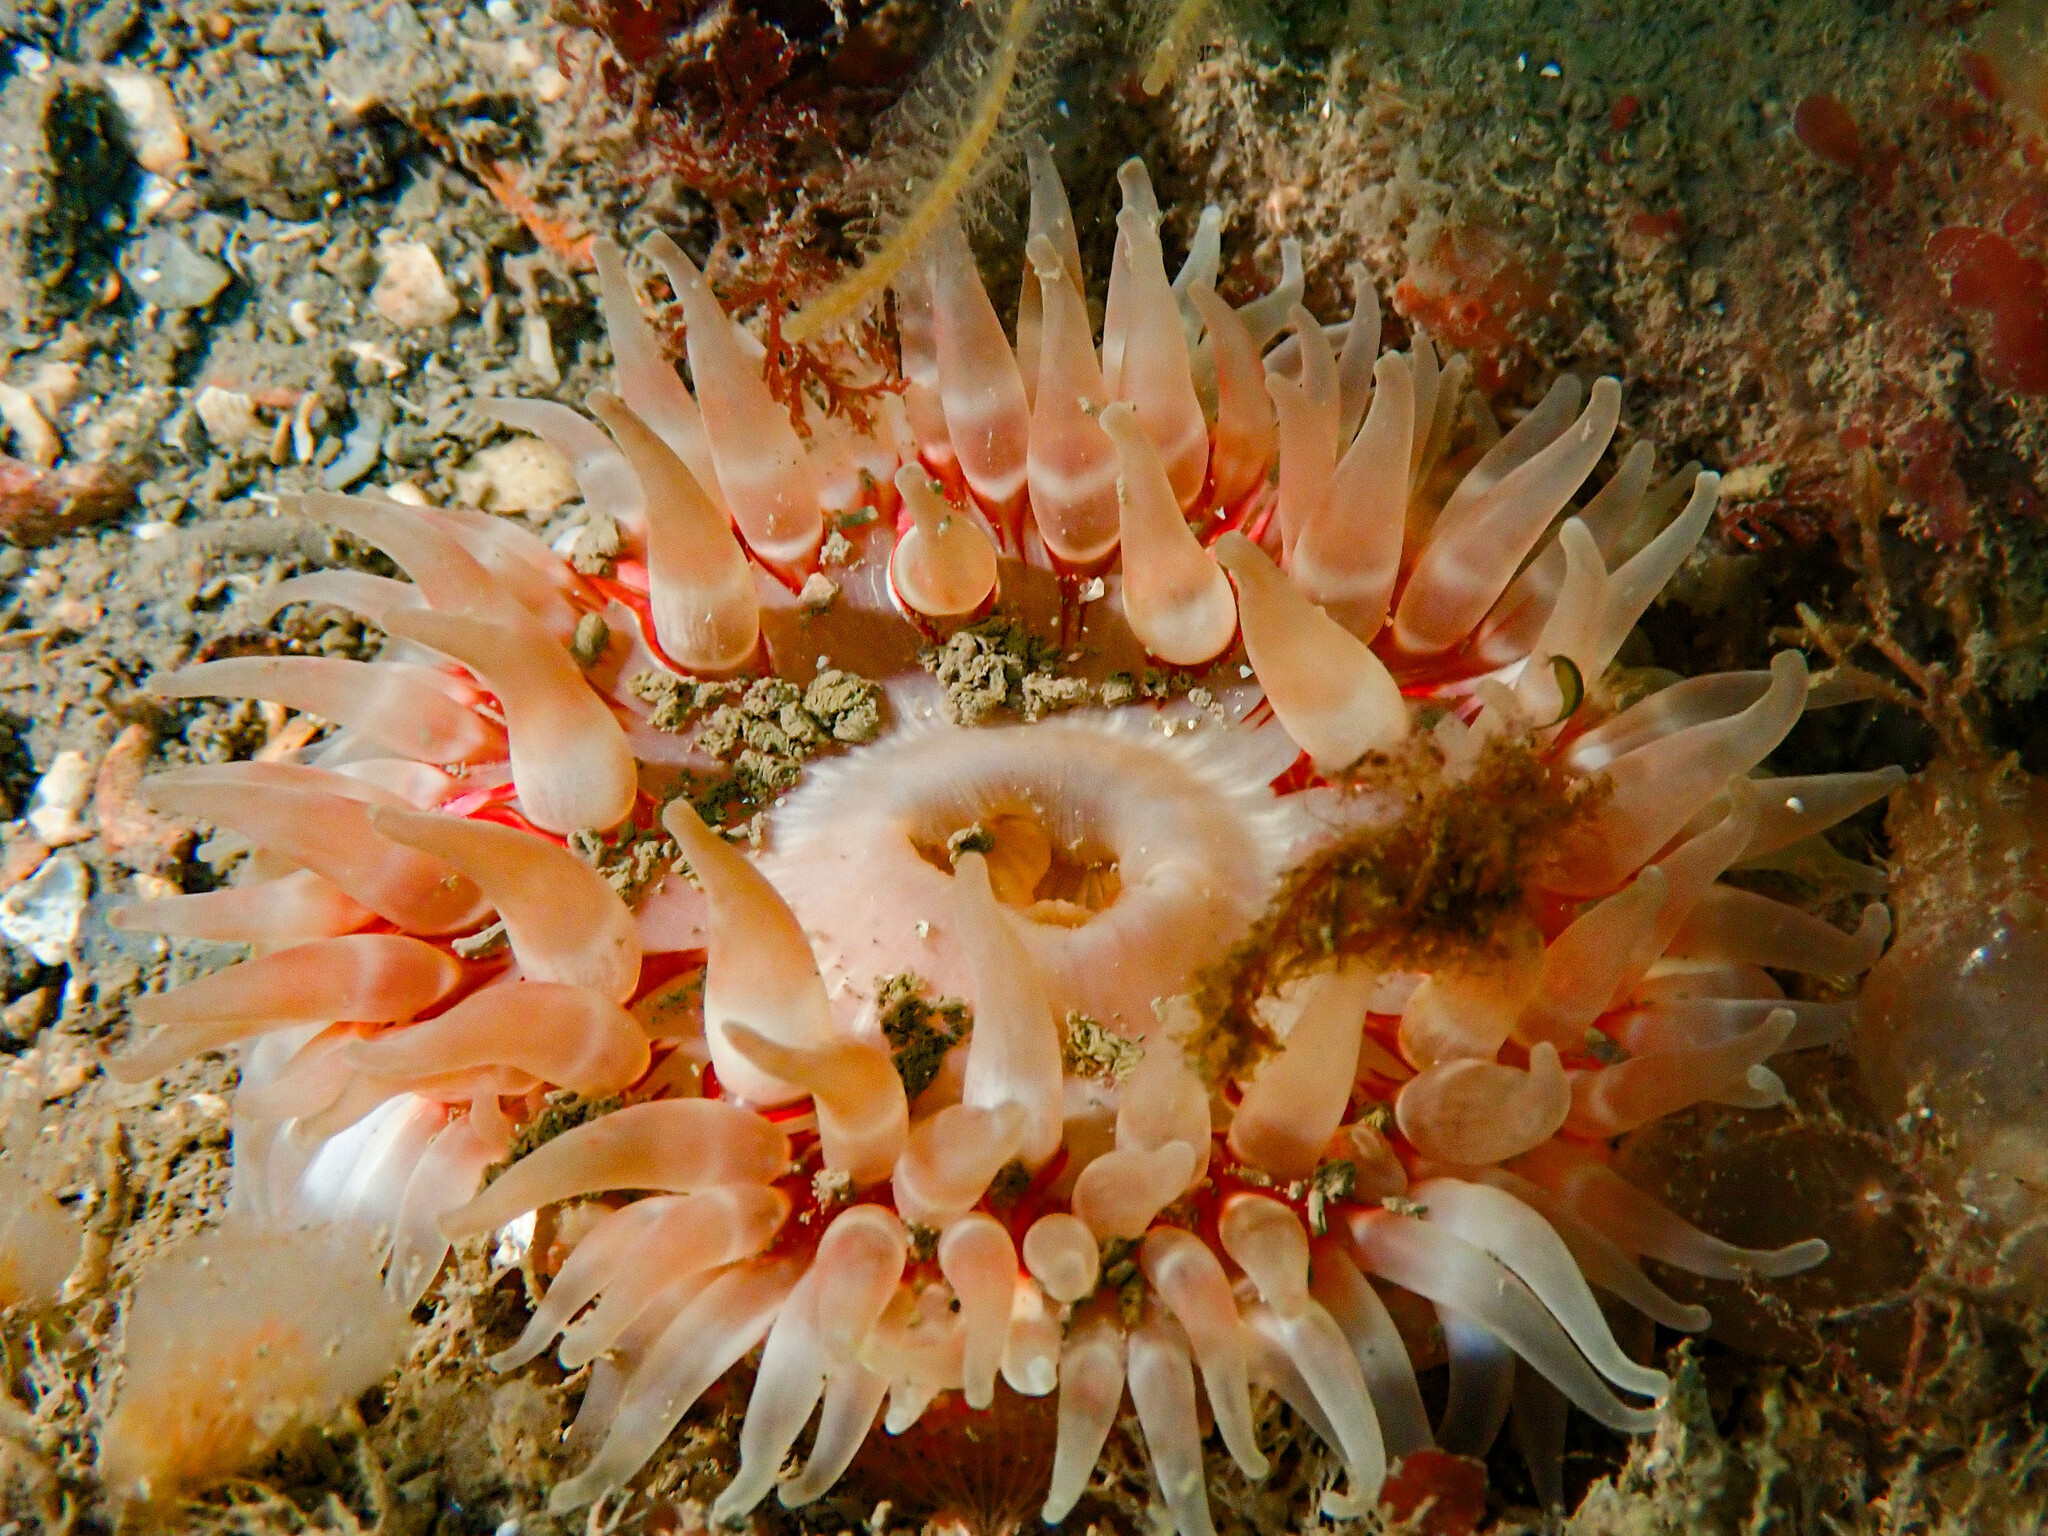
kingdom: Animalia
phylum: Cnidaria
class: Anthozoa
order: Actiniaria
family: Actiniidae
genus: Urticina
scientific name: Urticina felina
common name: Dahlia anemone
